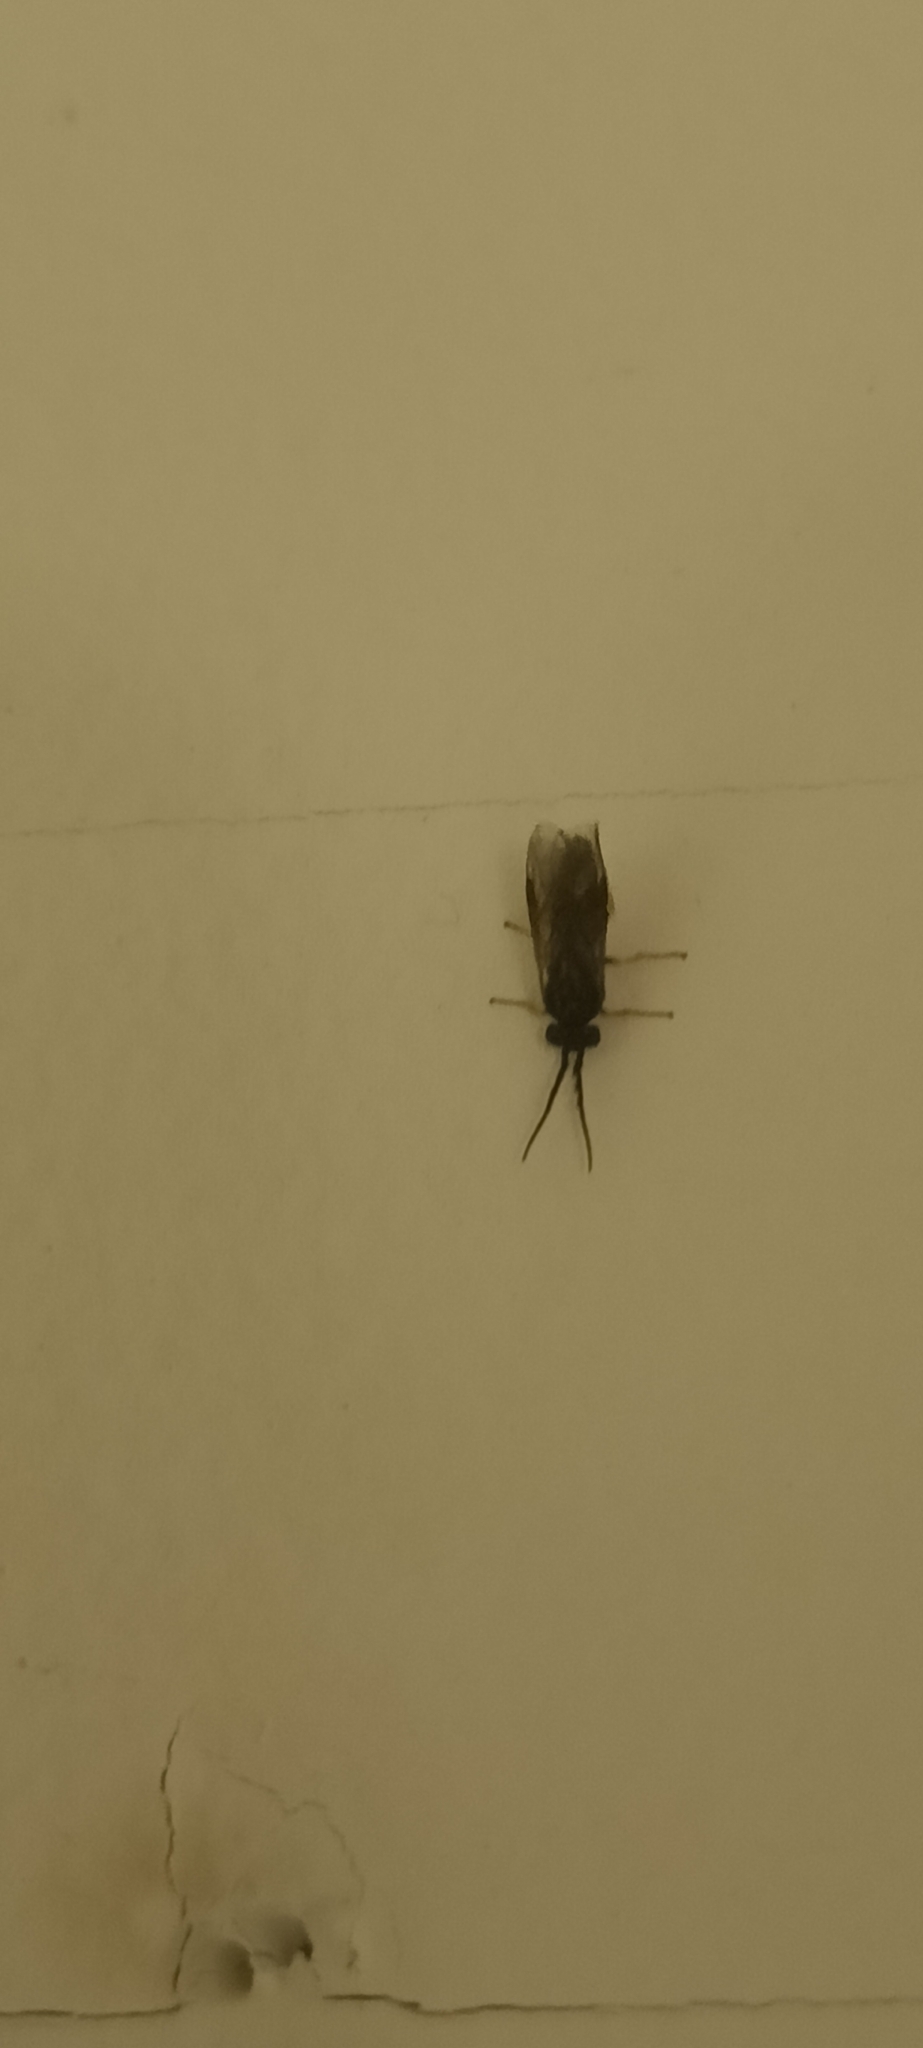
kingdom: Animalia
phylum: Arthropoda
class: Insecta
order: Hymenoptera
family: Tenthredinidae
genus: Cladius
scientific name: Cladius pectinicornis
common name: Sawfly
